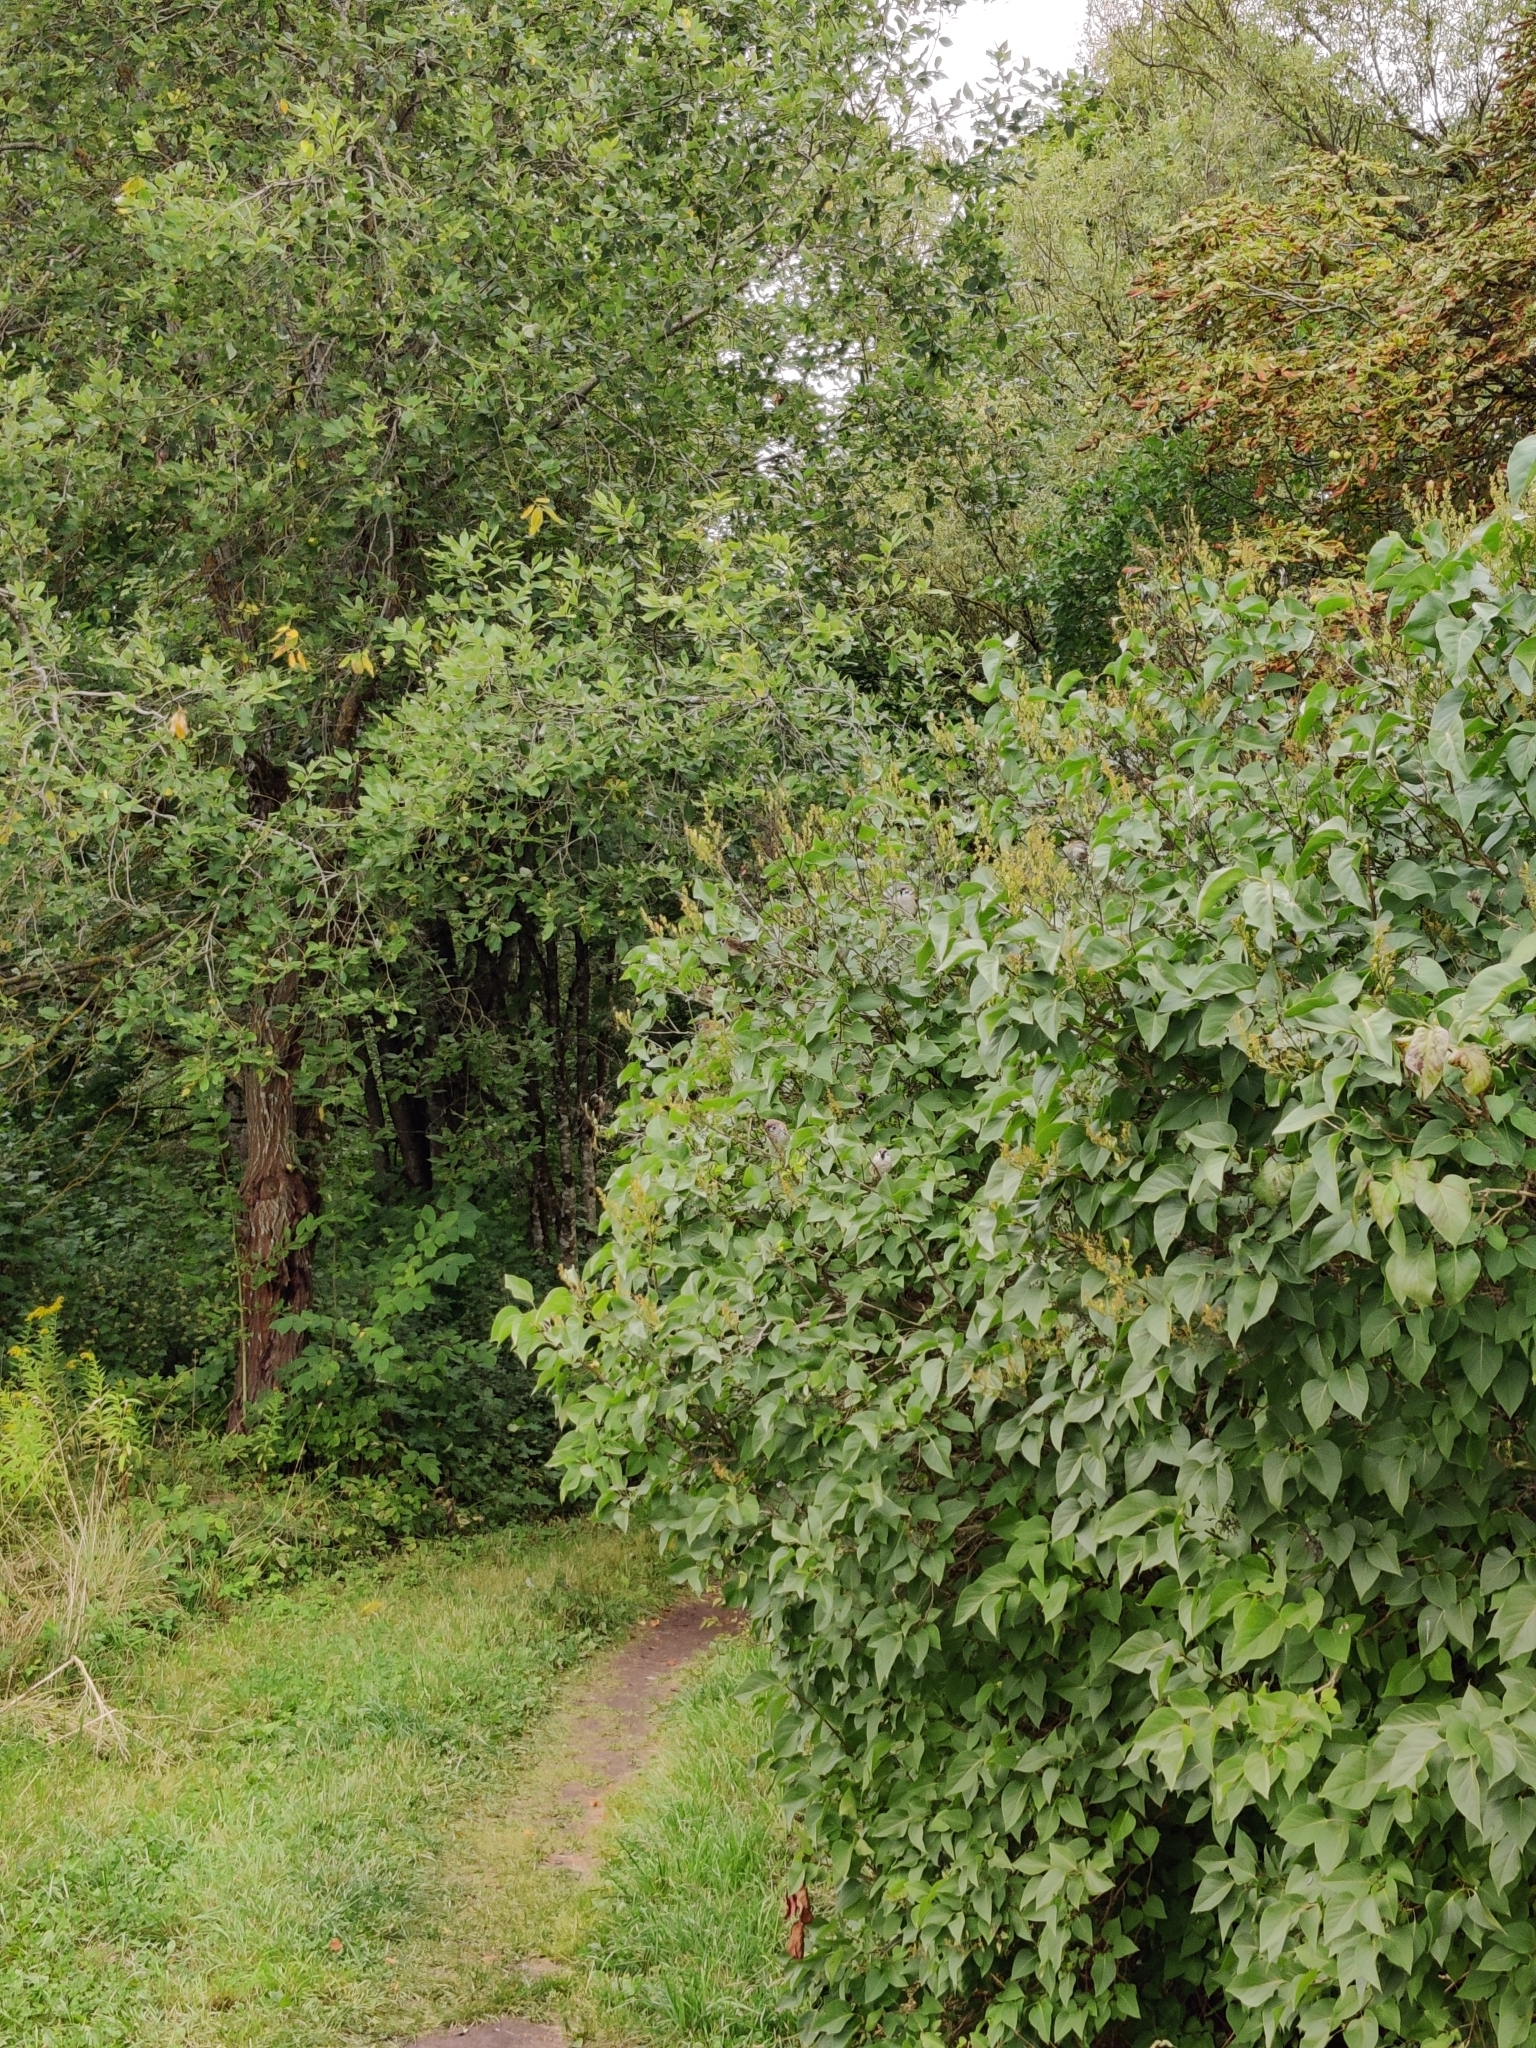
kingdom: Animalia
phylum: Chordata
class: Aves
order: Passeriformes
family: Passeridae
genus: Passer
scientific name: Passer montanus
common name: Eurasian tree sparrow
